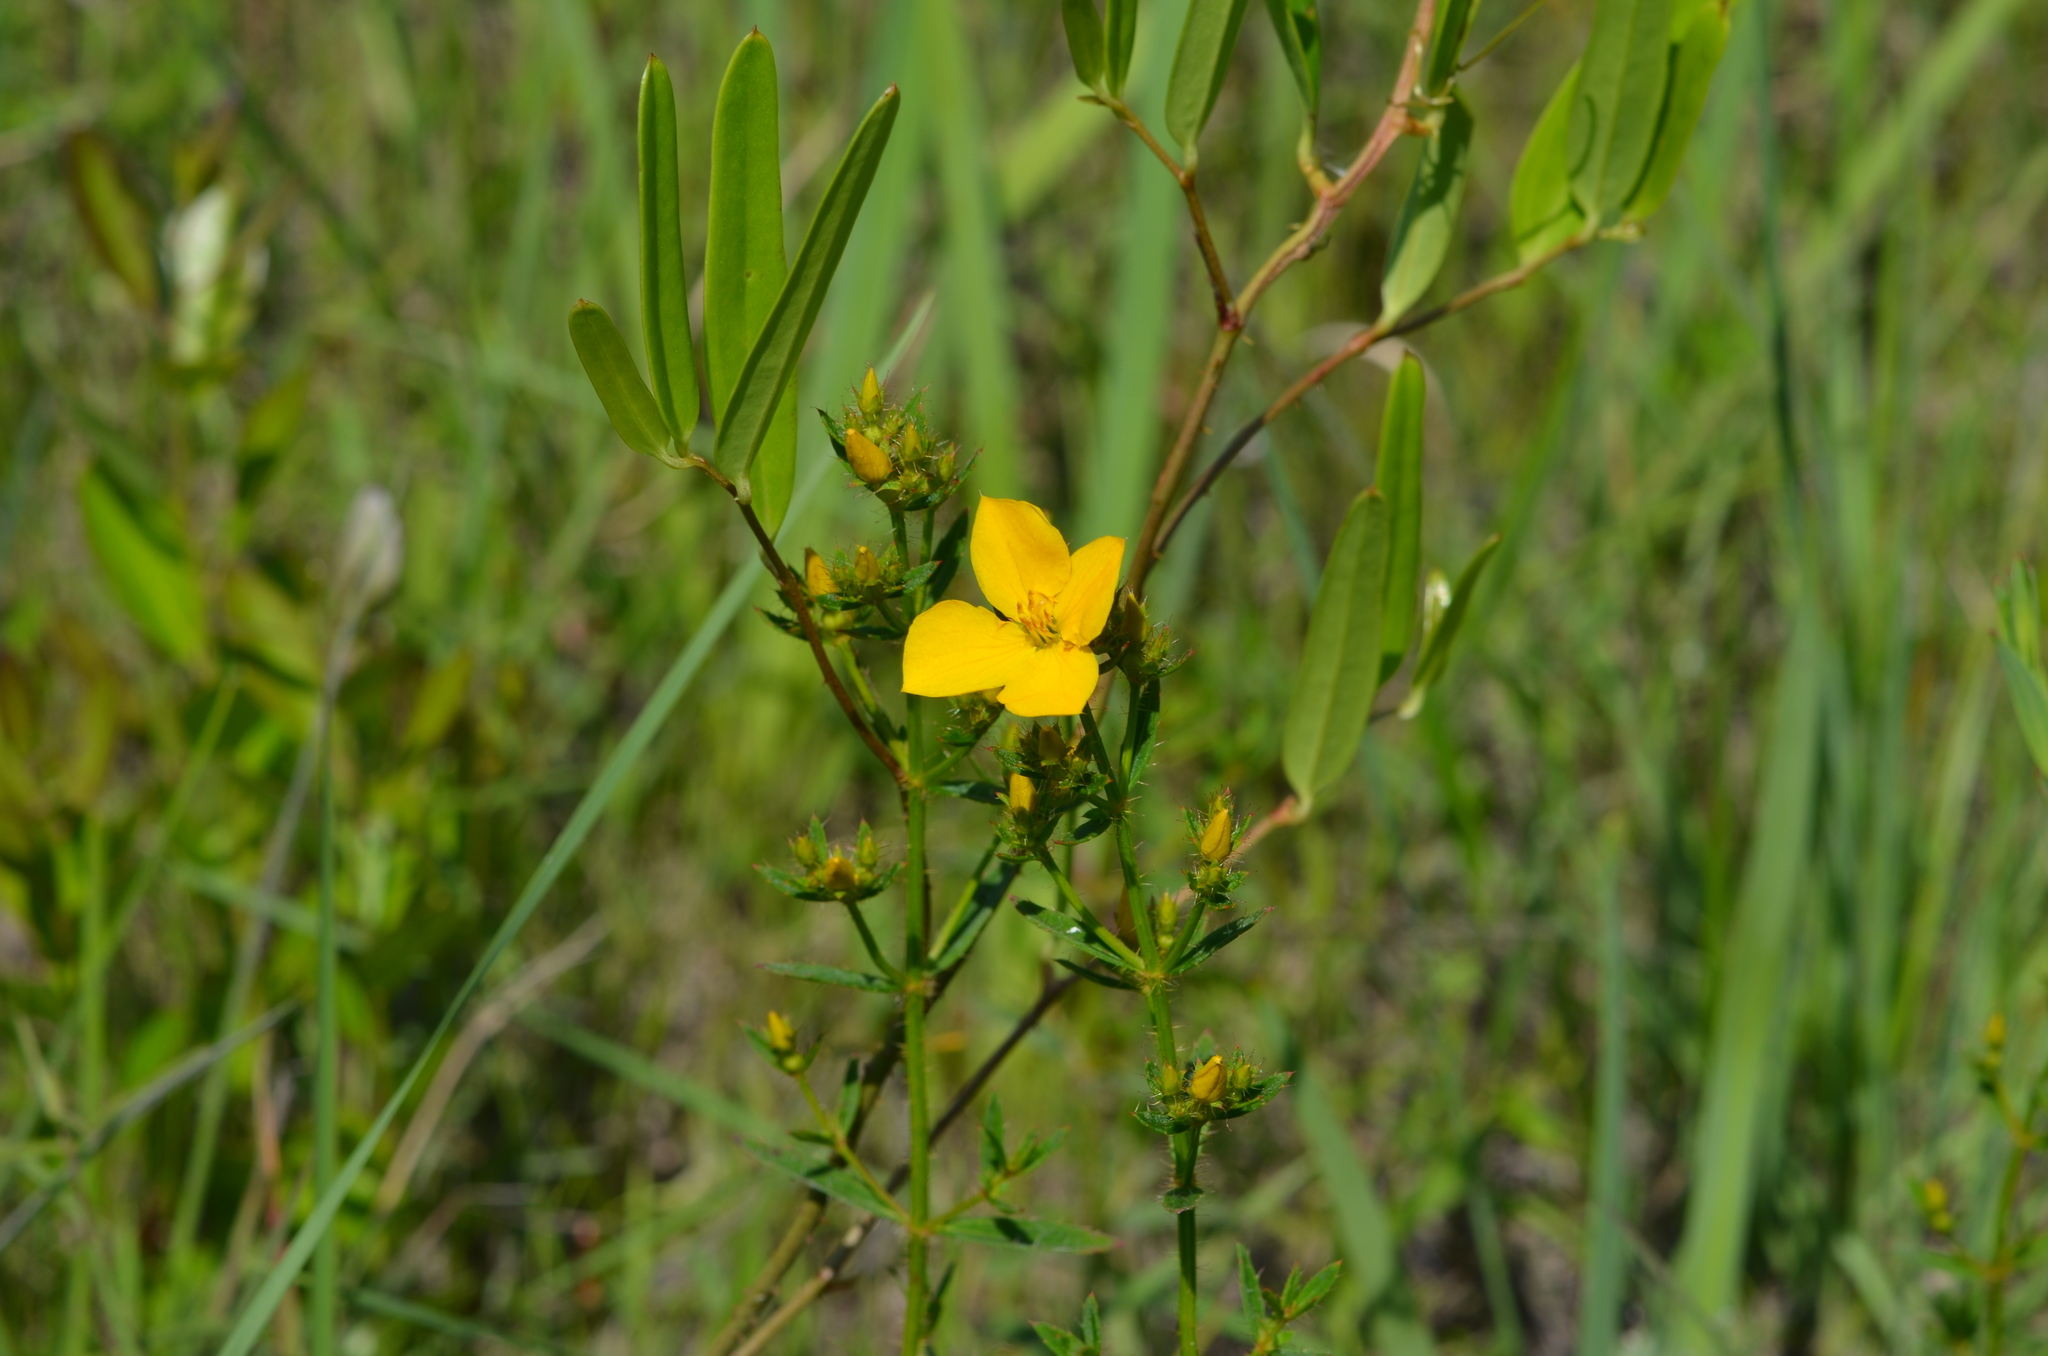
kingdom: Plantae
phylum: Tracheophyta
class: Magnoliopsida
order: Myrtales
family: Melastomataceae
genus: Rhexia
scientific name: Rhexia lutea
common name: Golden meadow-beauty
